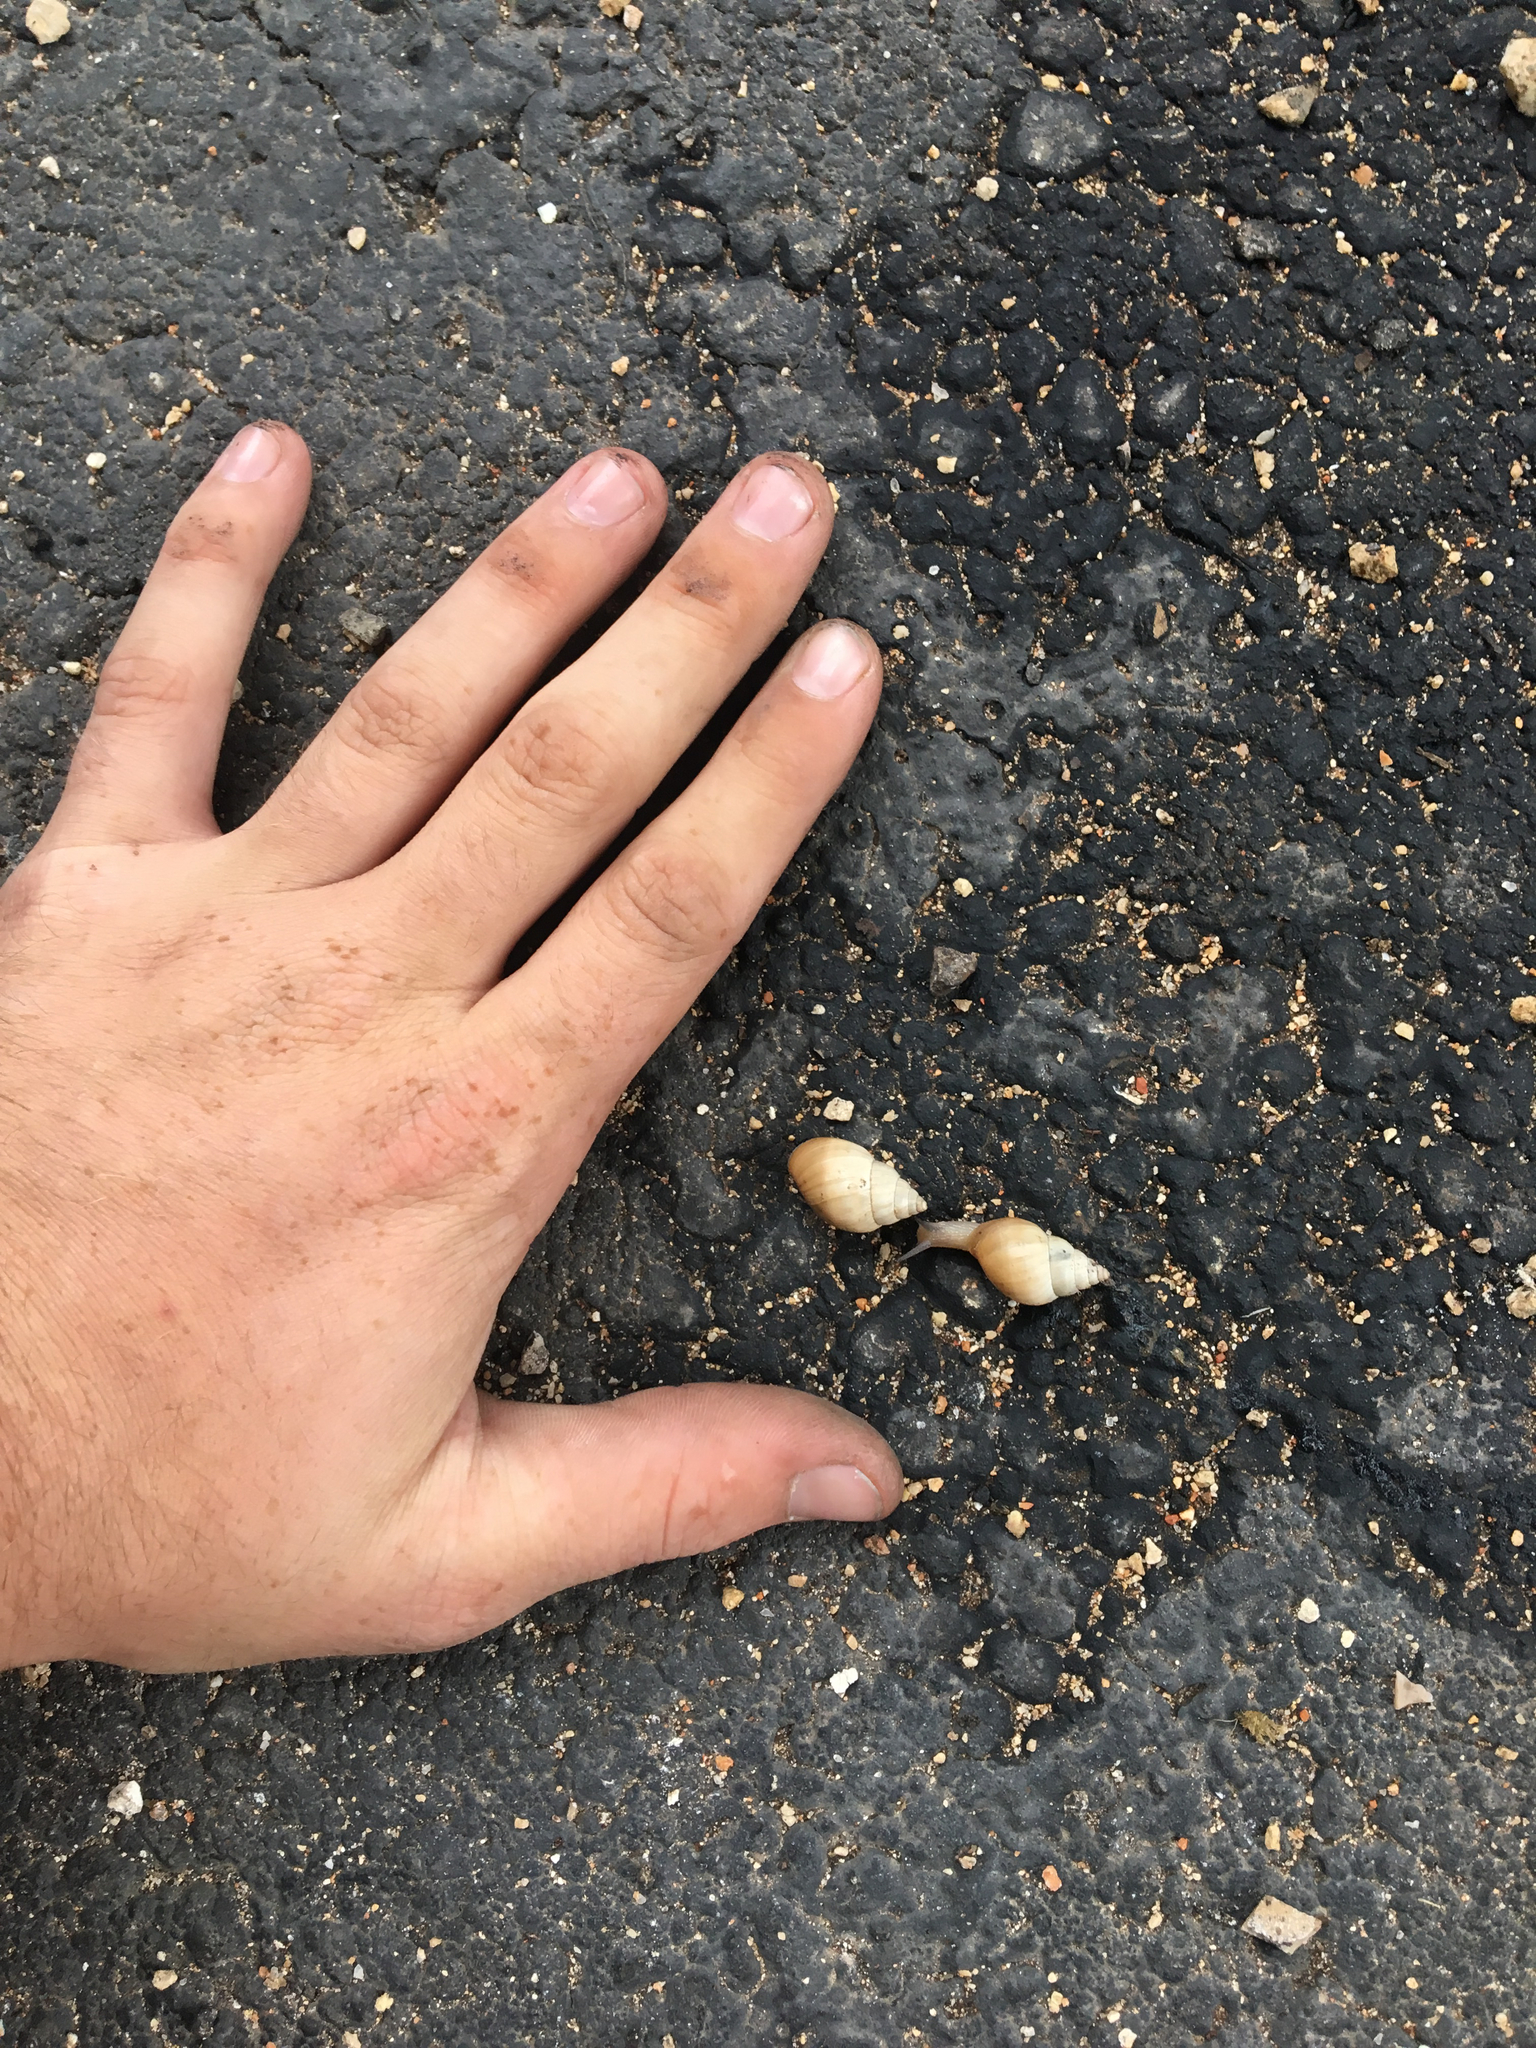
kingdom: Animalia
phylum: Mollusca
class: Gastropoda
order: Stylommatophora
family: Bulimulidae
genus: Rabdotus
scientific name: Rabdotus mooreanus
